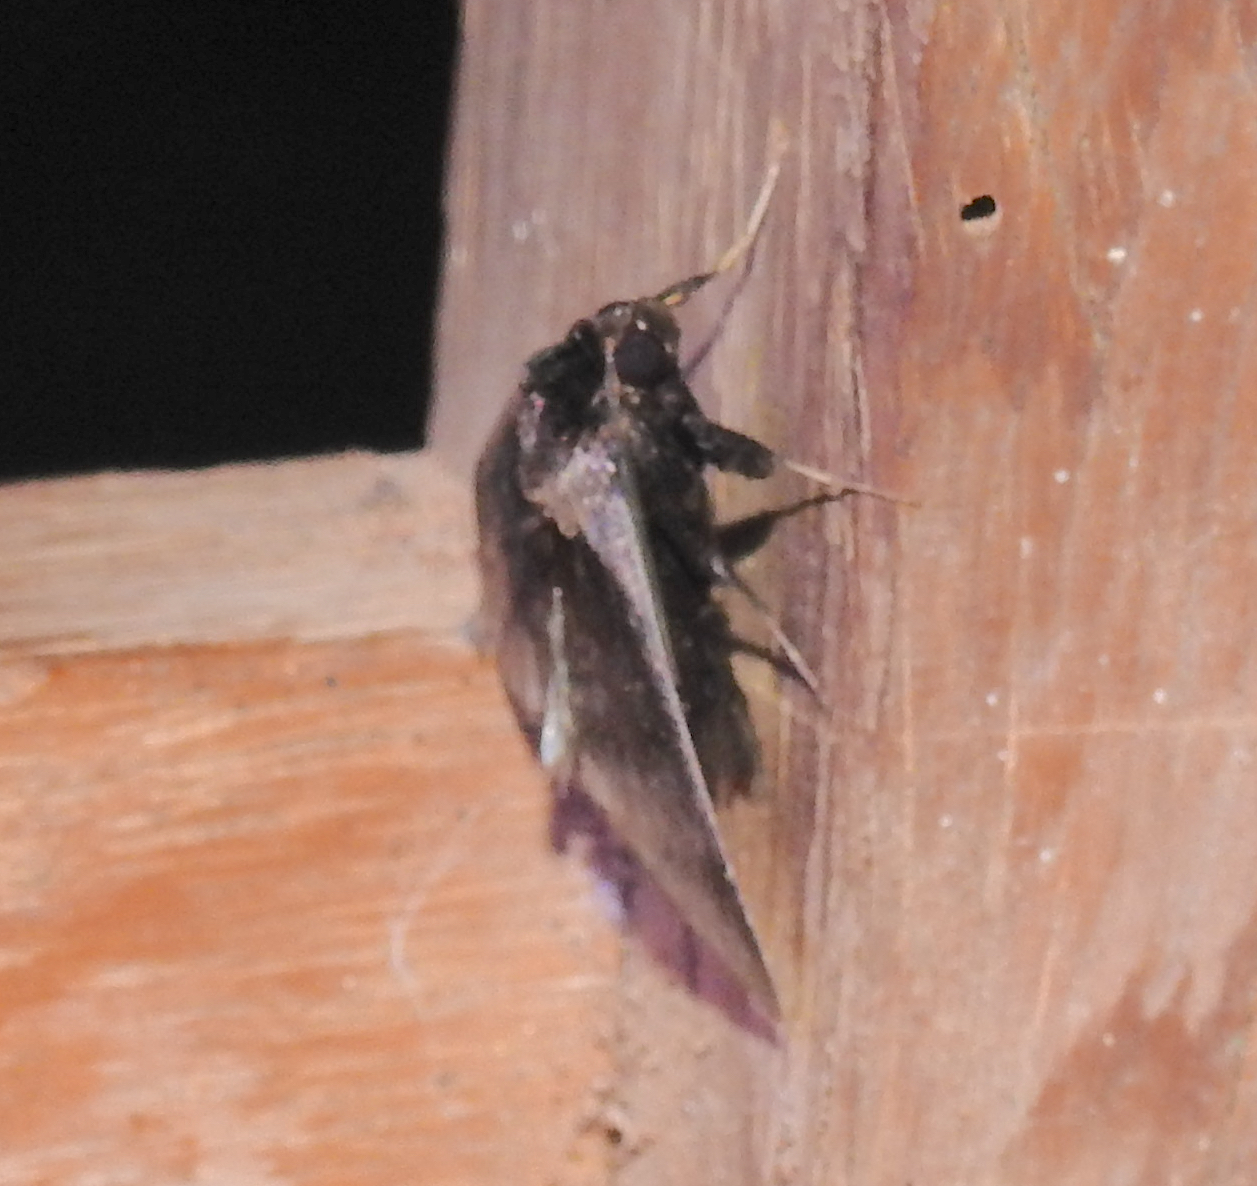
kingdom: Animalia
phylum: Arthropoda
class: Insecta
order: Lepidoptera
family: Erebidae
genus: Crithote
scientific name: Crithote pallivaga
